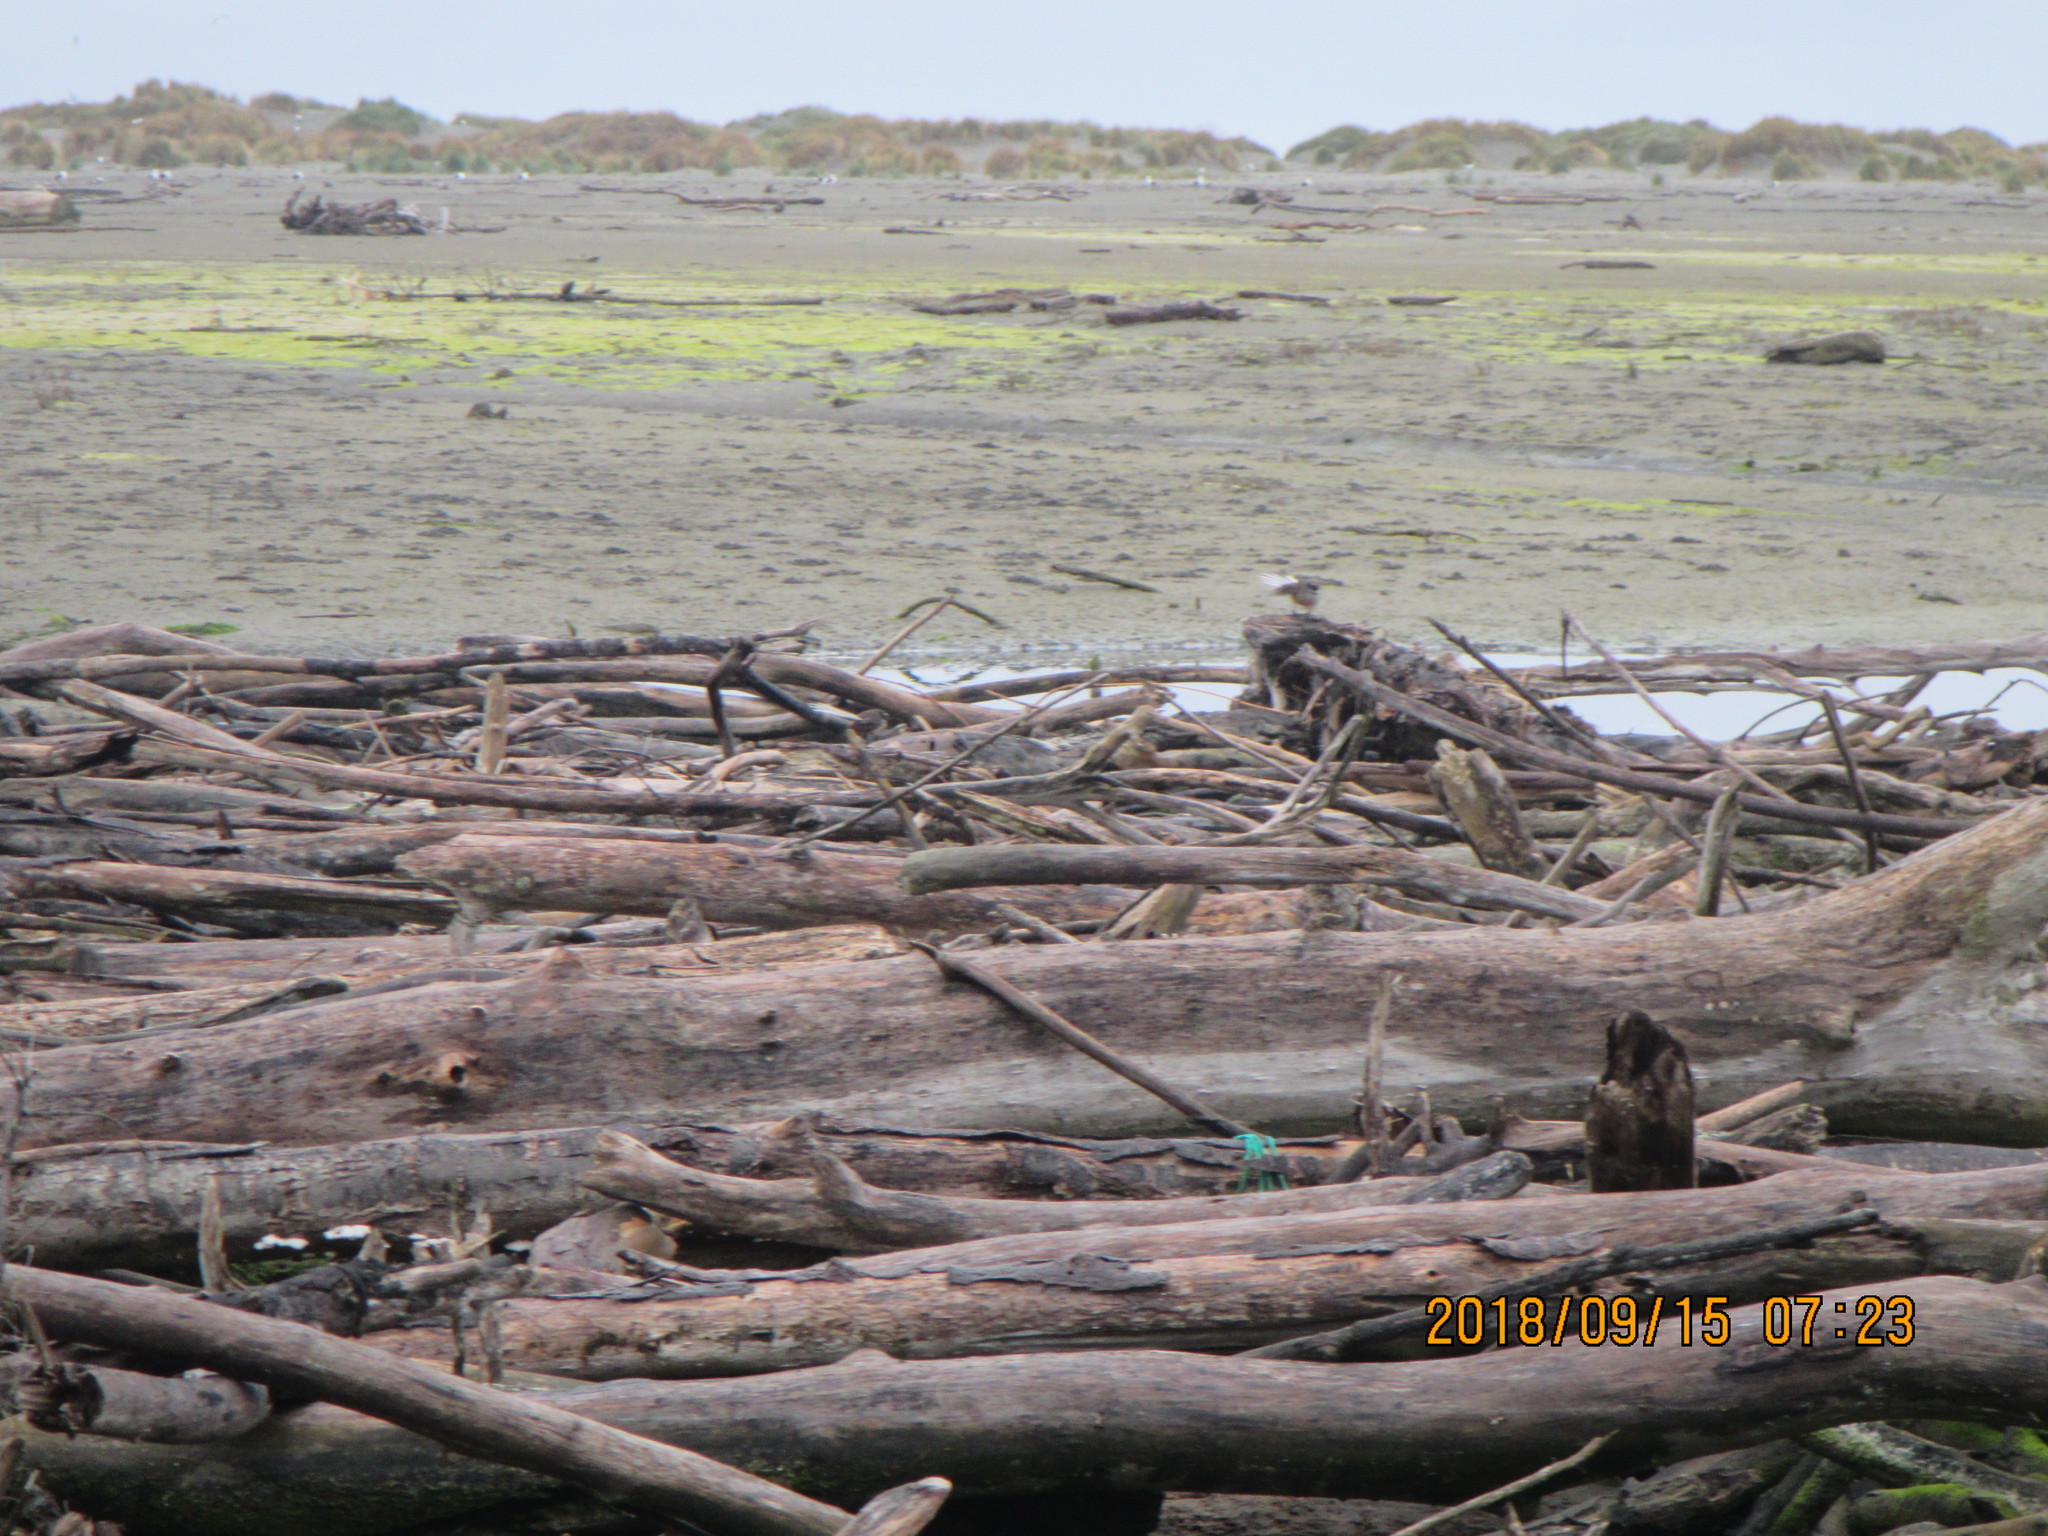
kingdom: Animalia
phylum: Chordata
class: Aves
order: Passeriformes
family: Rhipiduridae
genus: Rhipidura
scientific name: Rhipidura fuliginosa
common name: New zealand fantail
